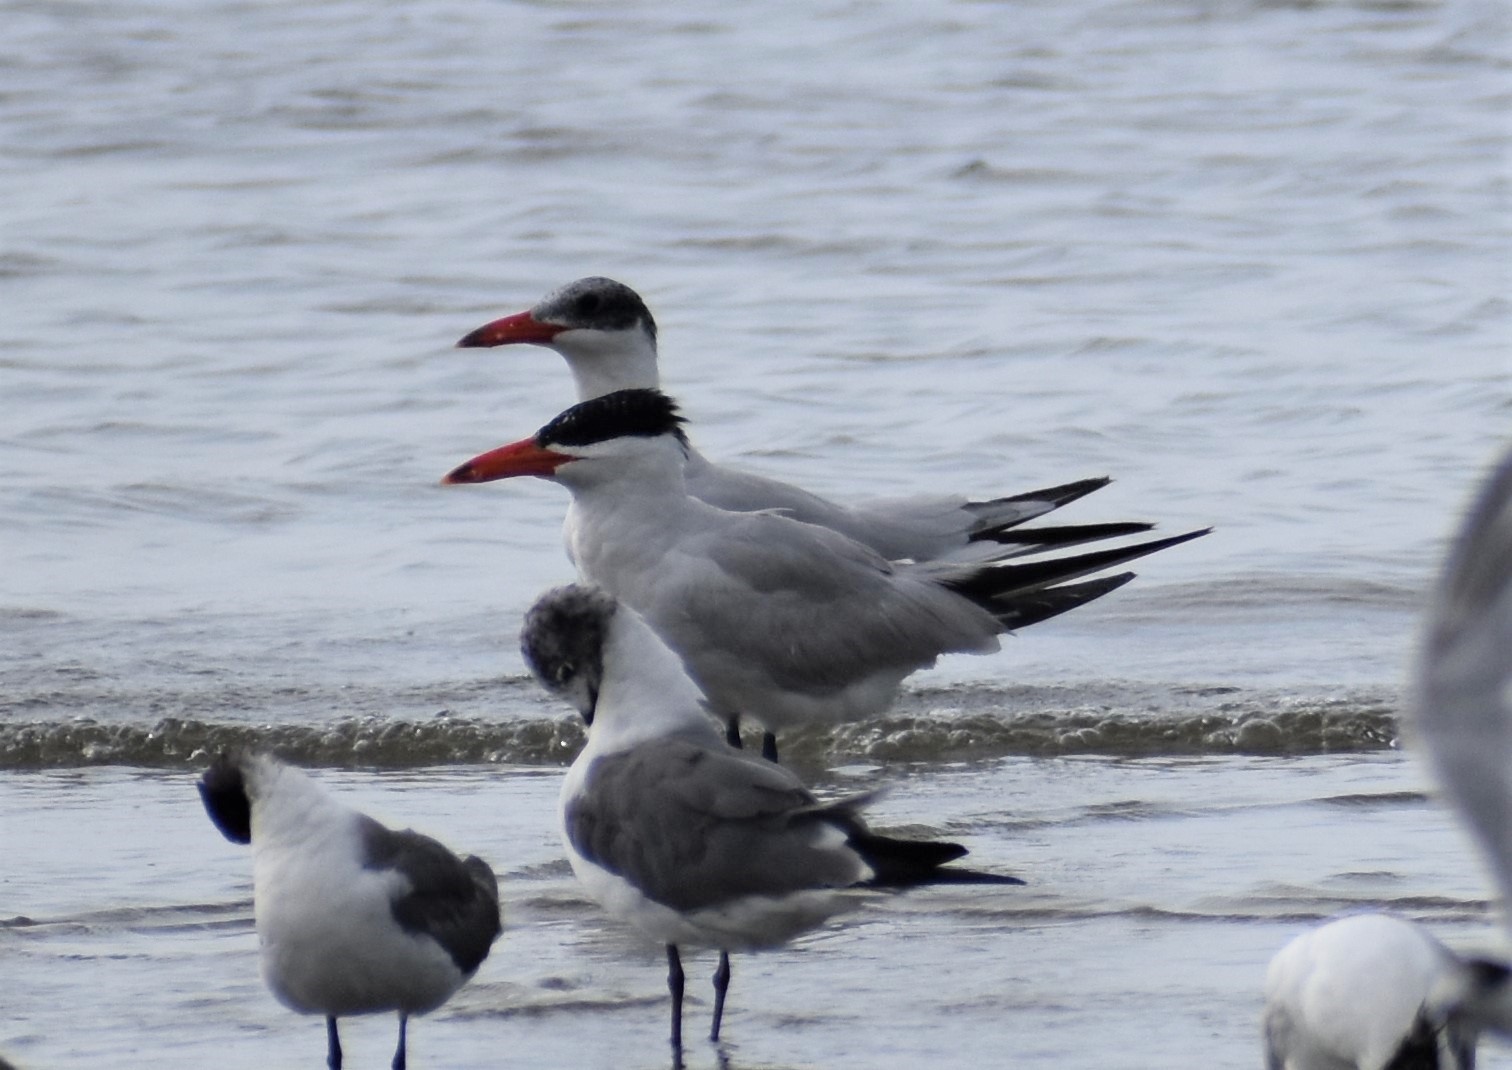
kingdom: Animalia
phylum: Chordata
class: Aves
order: Charadriiformes
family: Laridae
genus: Hydroprogne
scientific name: Hydroprogne caspia
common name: Caspian tern
